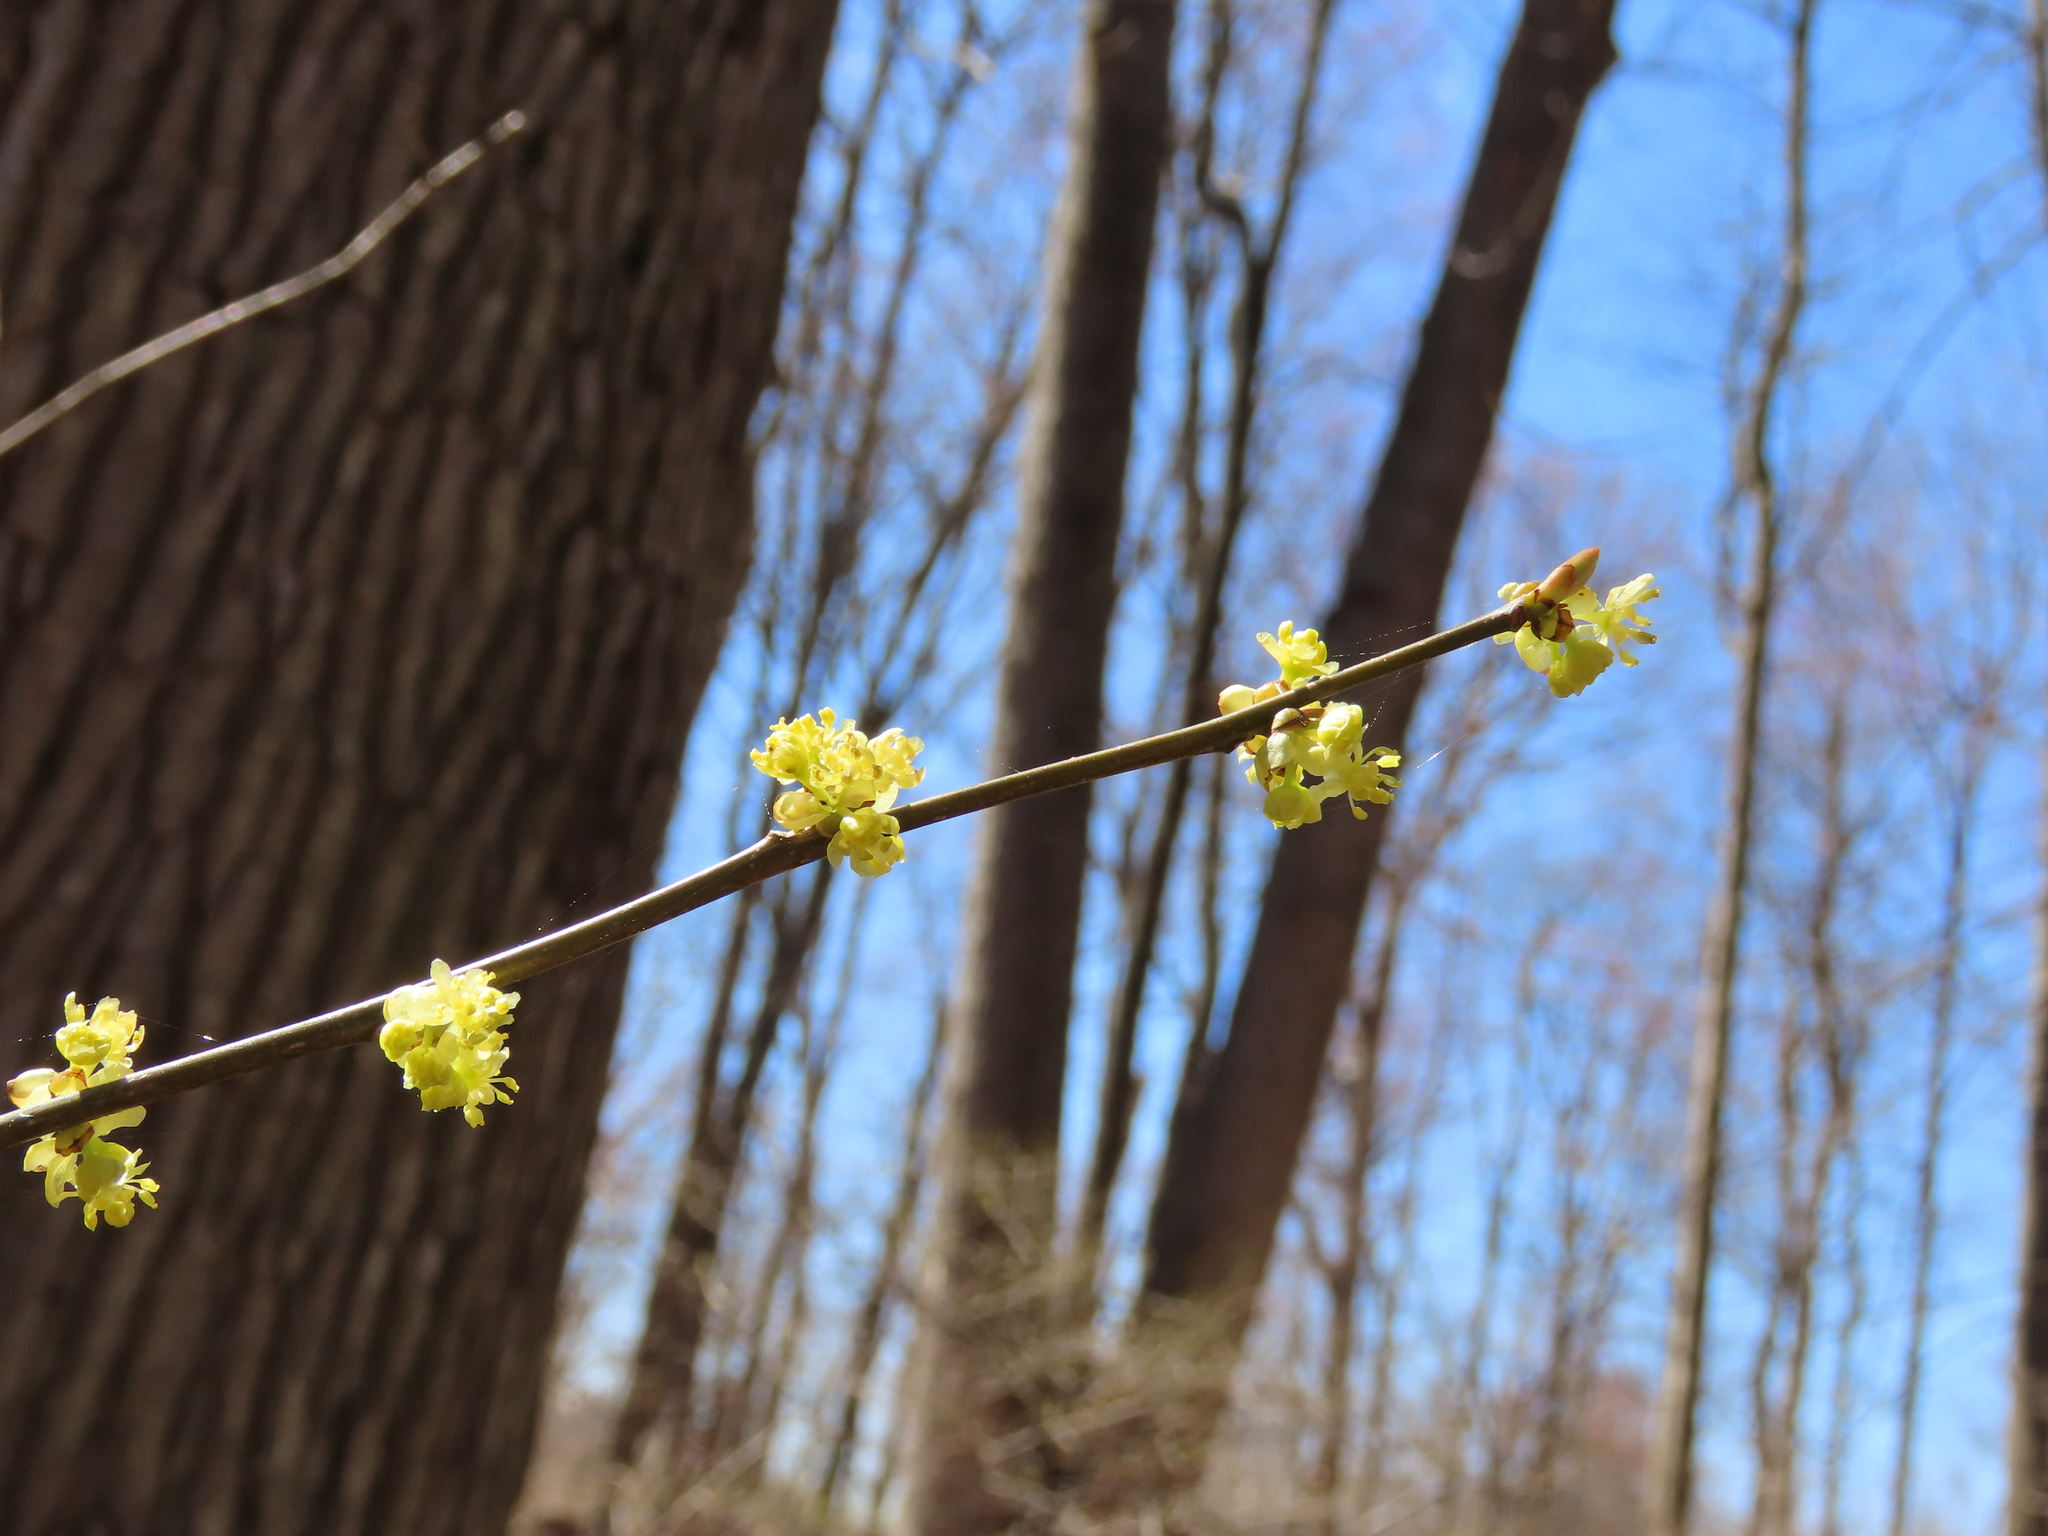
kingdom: Plantae
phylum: Tracheophyta
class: Magnoliopsida
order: Laurales
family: Lauraceae
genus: Lindera
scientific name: Lindera benzoin
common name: Spicebush
